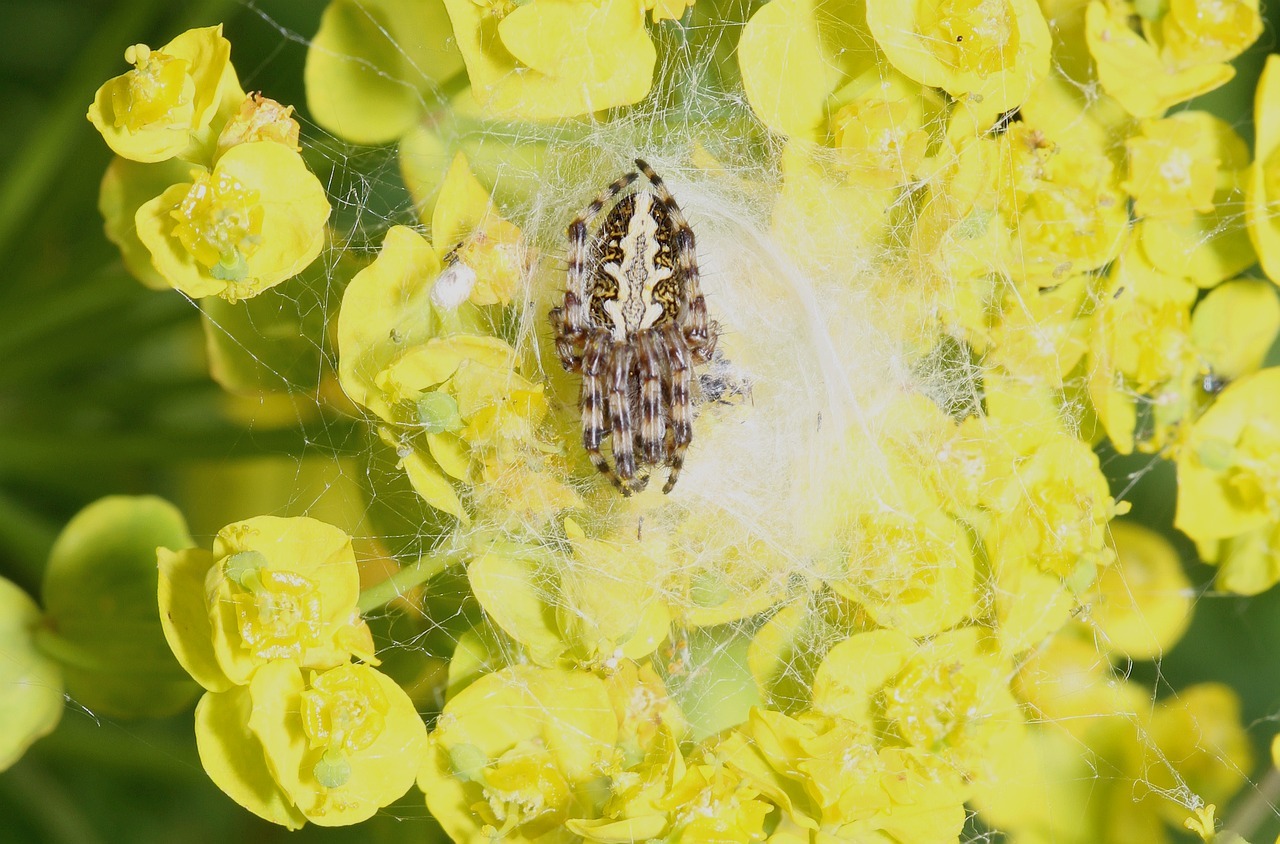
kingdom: Animalia
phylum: Arthropoda
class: Arachnida
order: Araneae
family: Araneidae
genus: Aculepeira
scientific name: Aculepeira ceropegia
